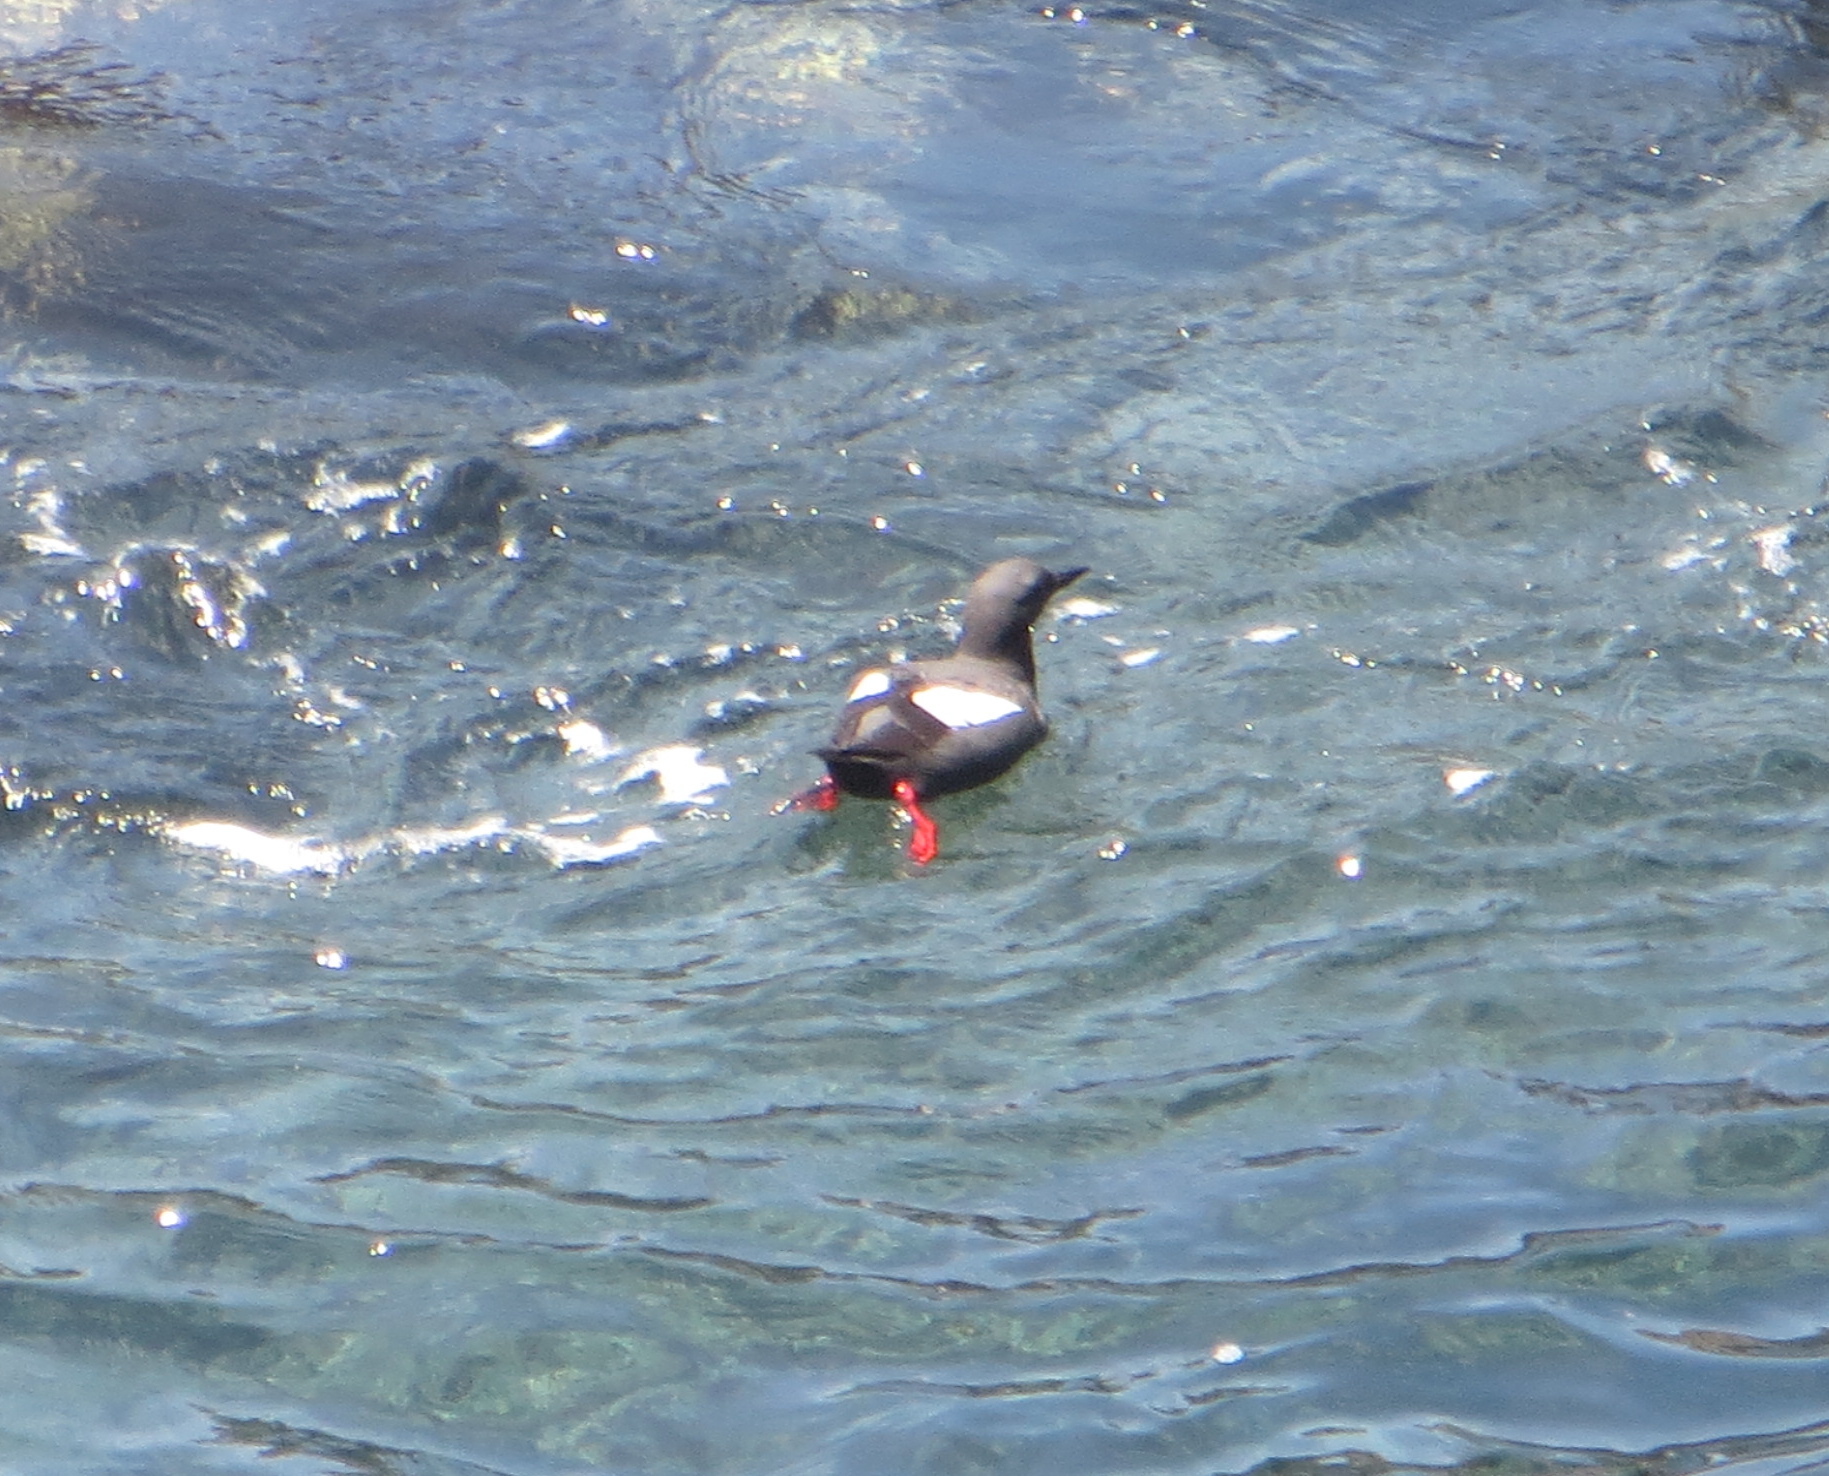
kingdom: Animalia
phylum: Chordata
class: Aves
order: Charadriiformes
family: Alcidae
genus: Cepphus
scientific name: Cepphus columba
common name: Pigeon guillemot
